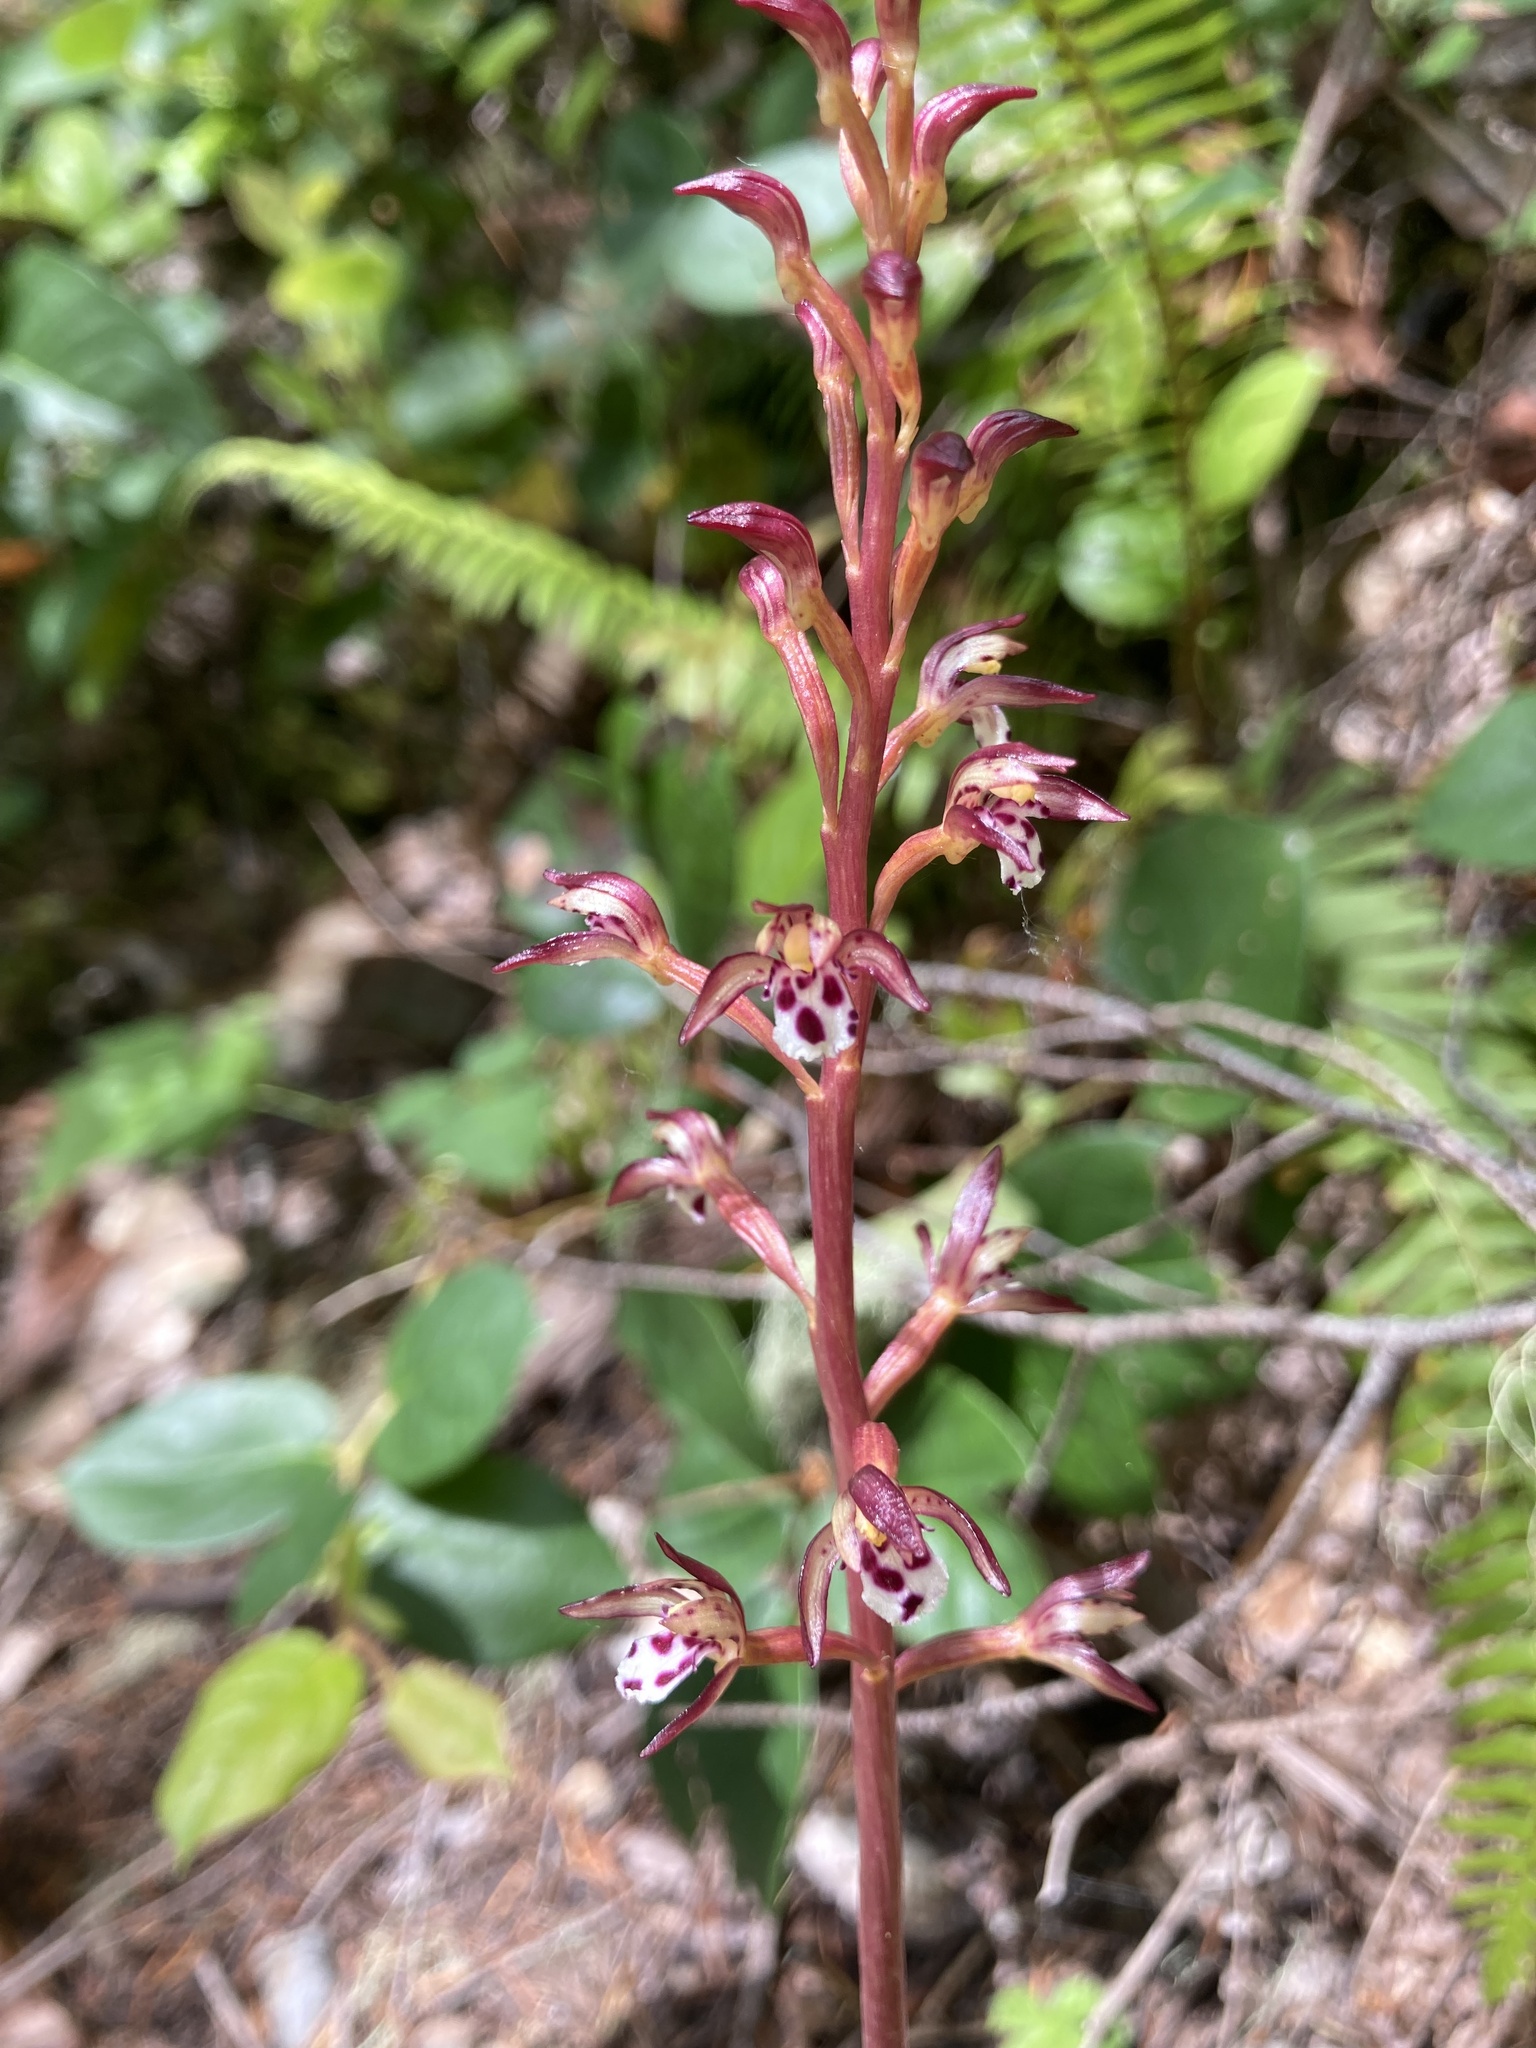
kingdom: Plantae
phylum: Tracheophyta
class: Liliopsida
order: Asparagales
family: Orchidaceae
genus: Corallorhiza
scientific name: Corallorhiza maculata
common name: Spotted coralroot
